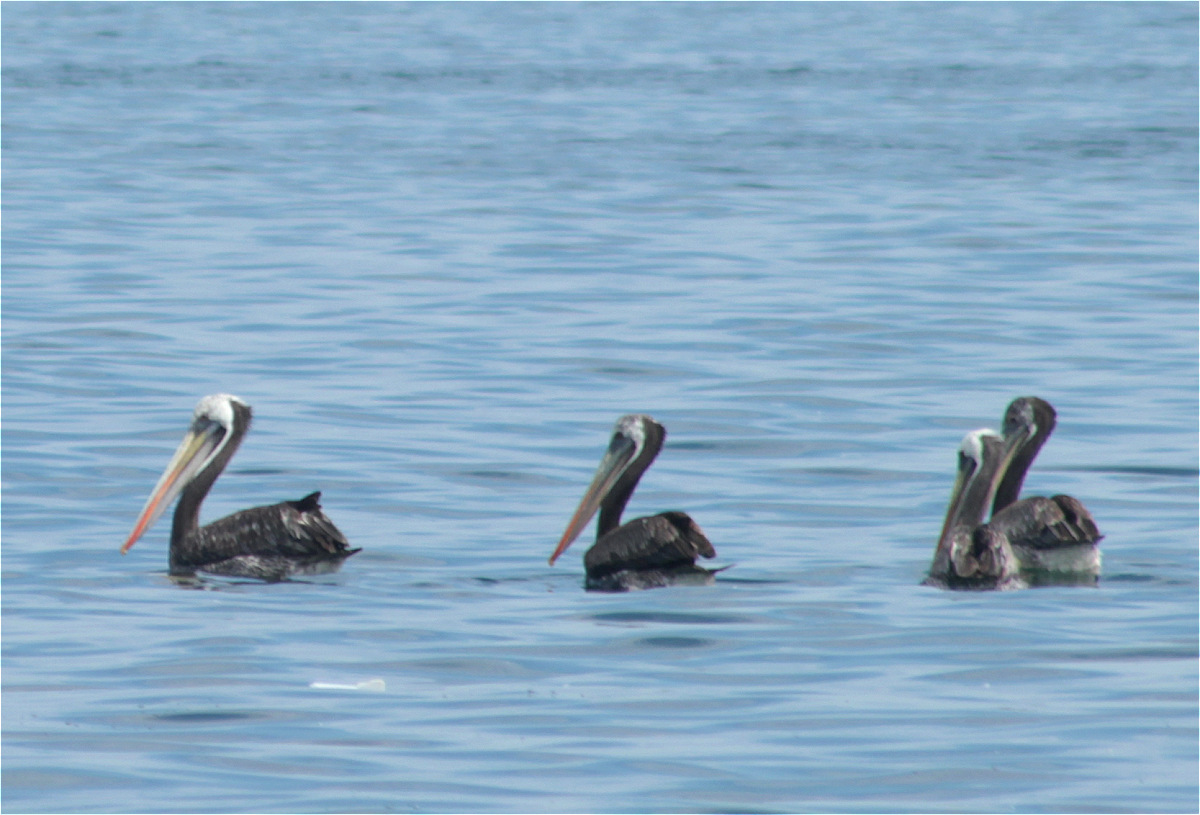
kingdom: Animalia
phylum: Chordata
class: Aves
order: Pelecaniformes
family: Pelecanidae
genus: Pelecanus
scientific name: Pelecanus thagus
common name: Peruvian pelican
